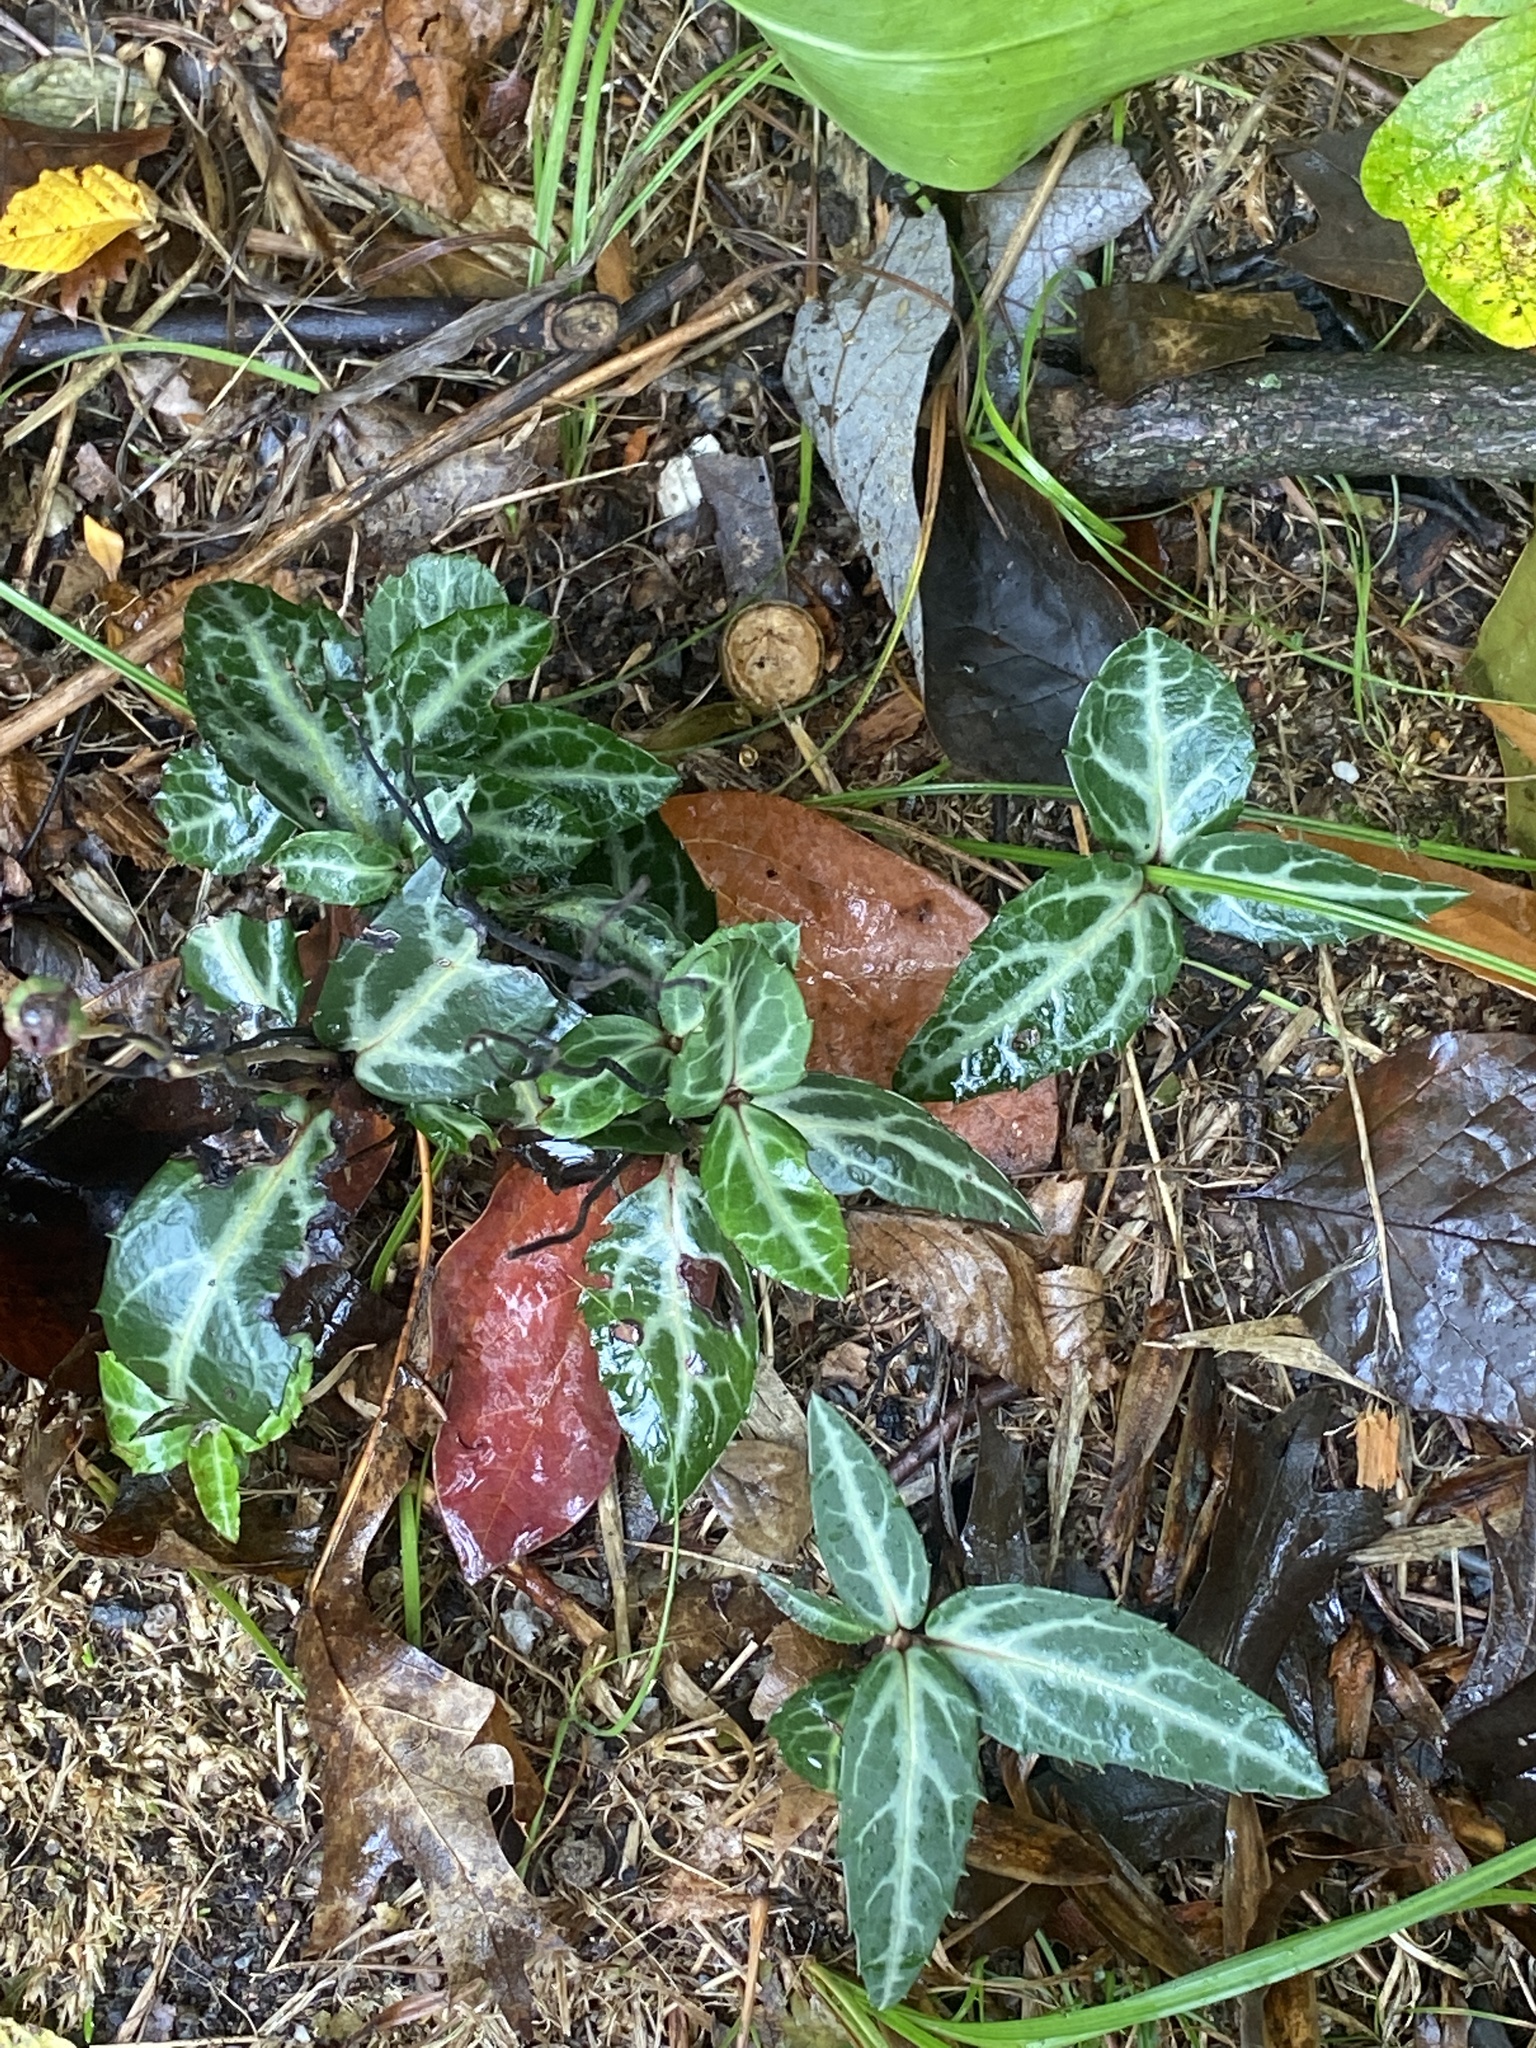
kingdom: Plantae
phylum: Tracheophyta
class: Magnoliopsida
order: Ericales
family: Ericaceae
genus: Chimaphila
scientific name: Chimaphila maculata
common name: Spotted pipsissewa
